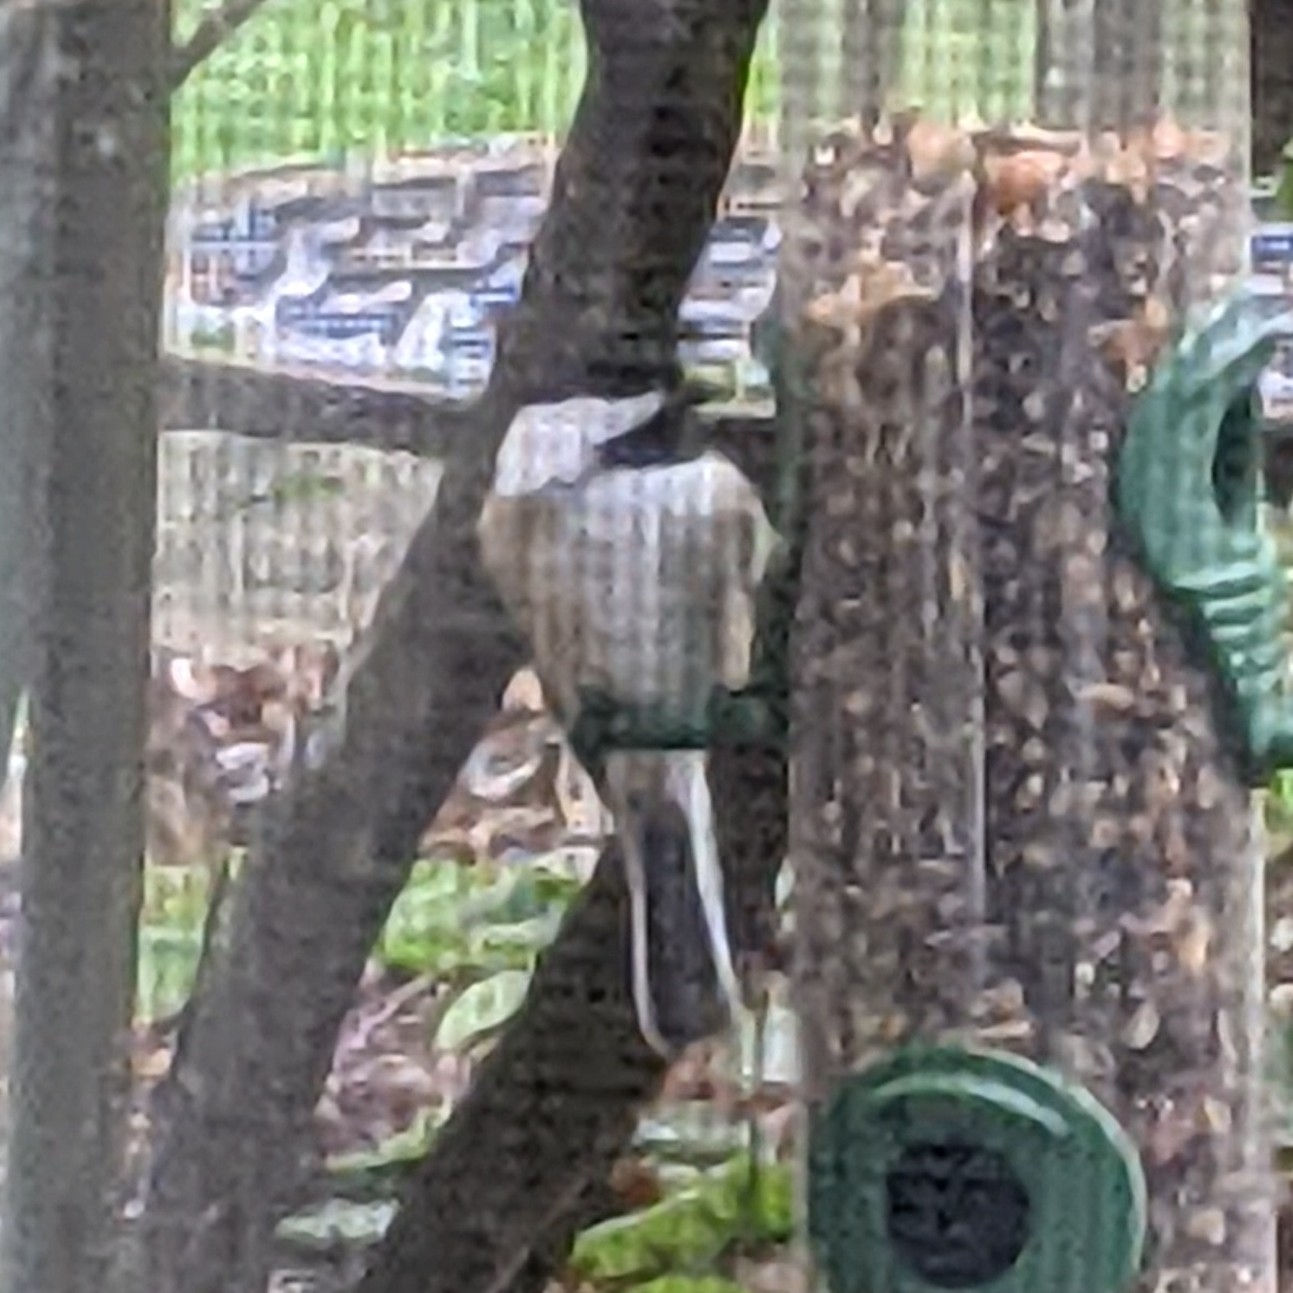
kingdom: Animalia
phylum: Chordata
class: Aves
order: Passeriformes
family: Paridae
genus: Poecile
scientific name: Poecile atricapillus
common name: Black-capped chickadee
